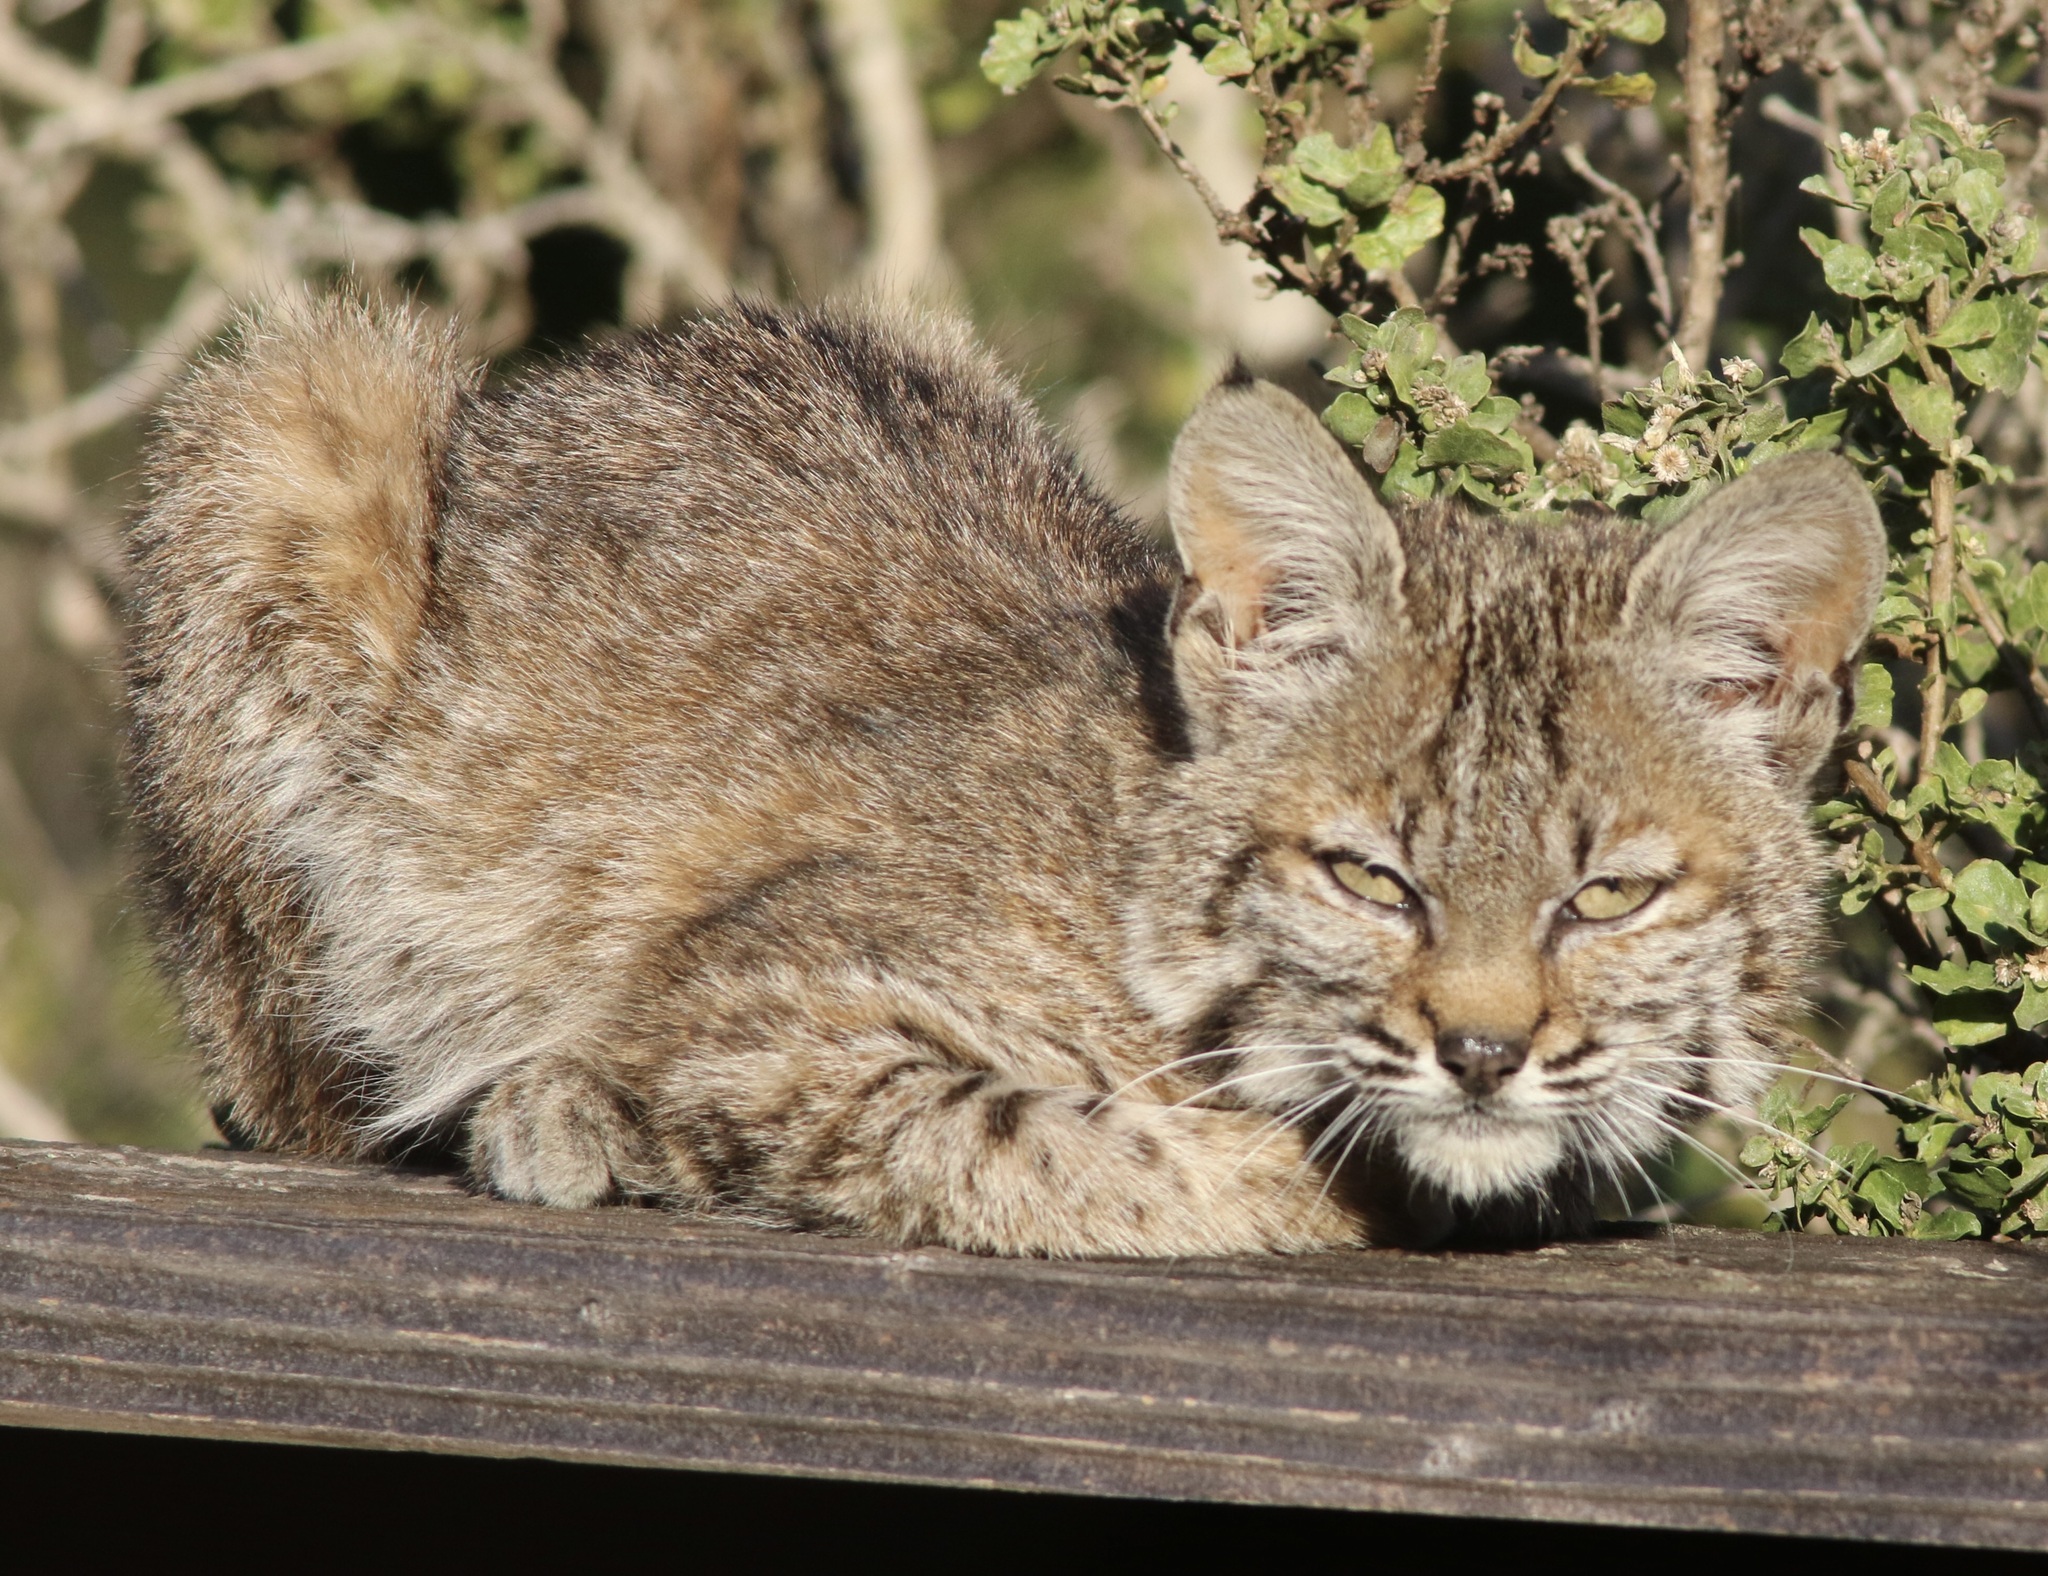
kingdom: Animalia
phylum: Chordata
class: Mammalia
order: Carnivora
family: Felidae
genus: Lynx
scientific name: Lynx rufus
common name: Bobcat
